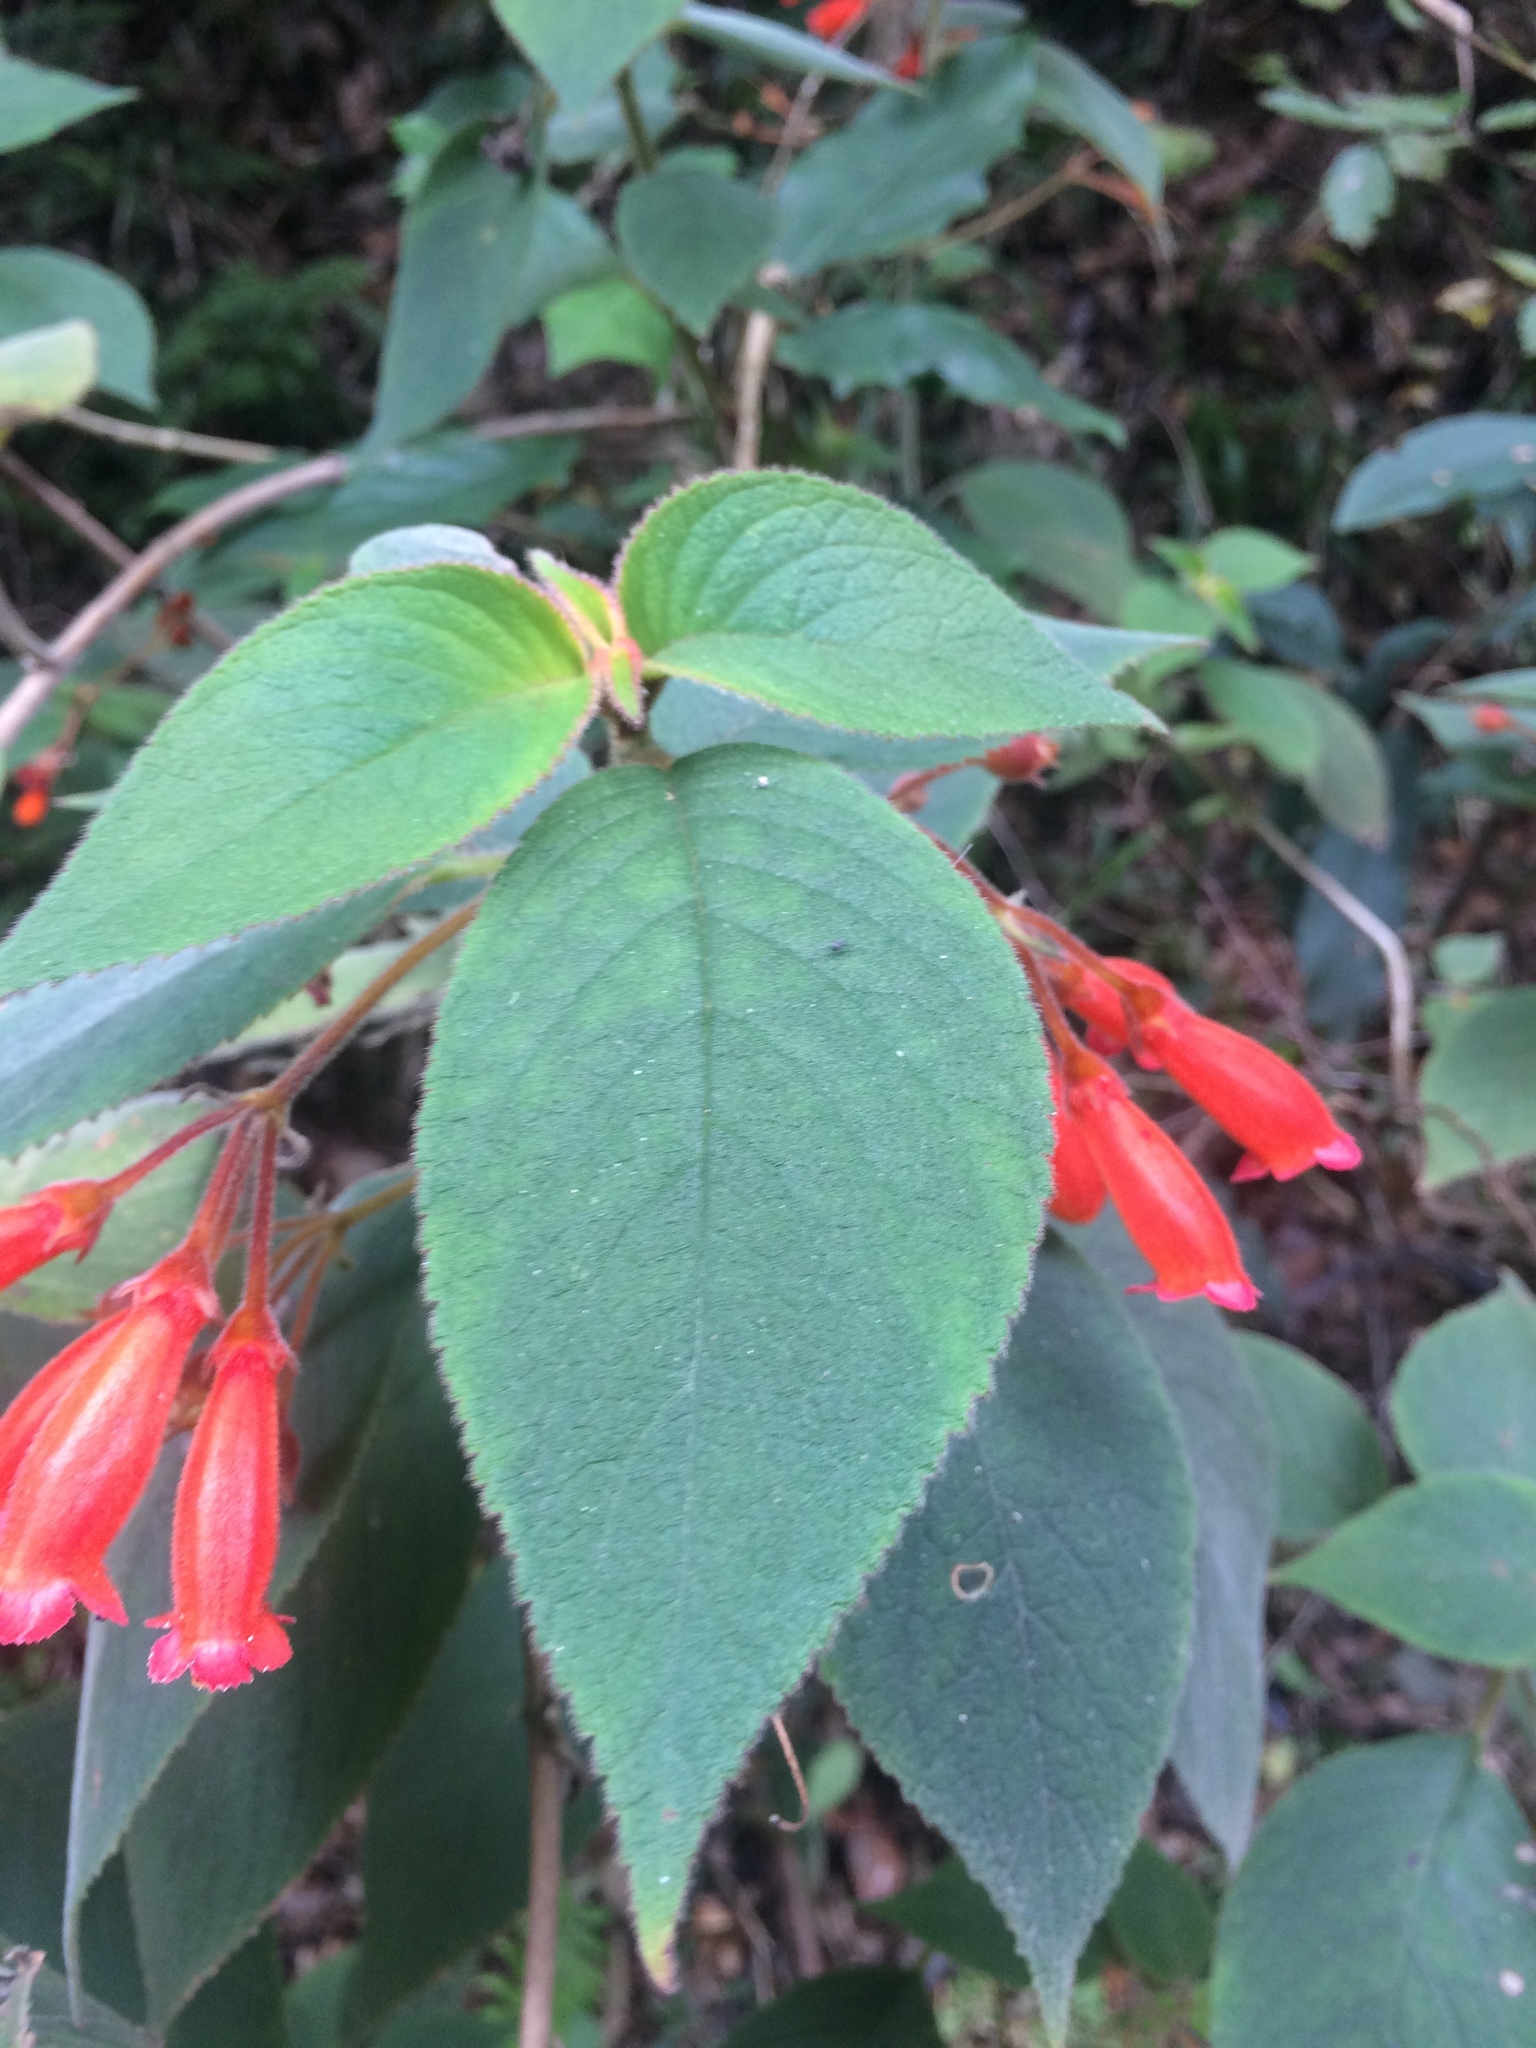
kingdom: Plantae
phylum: Tracheophyta
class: Magnoliopsida
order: Lamiales
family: Gesneriaceae
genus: Moussonia
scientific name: Moussonia deppeana
